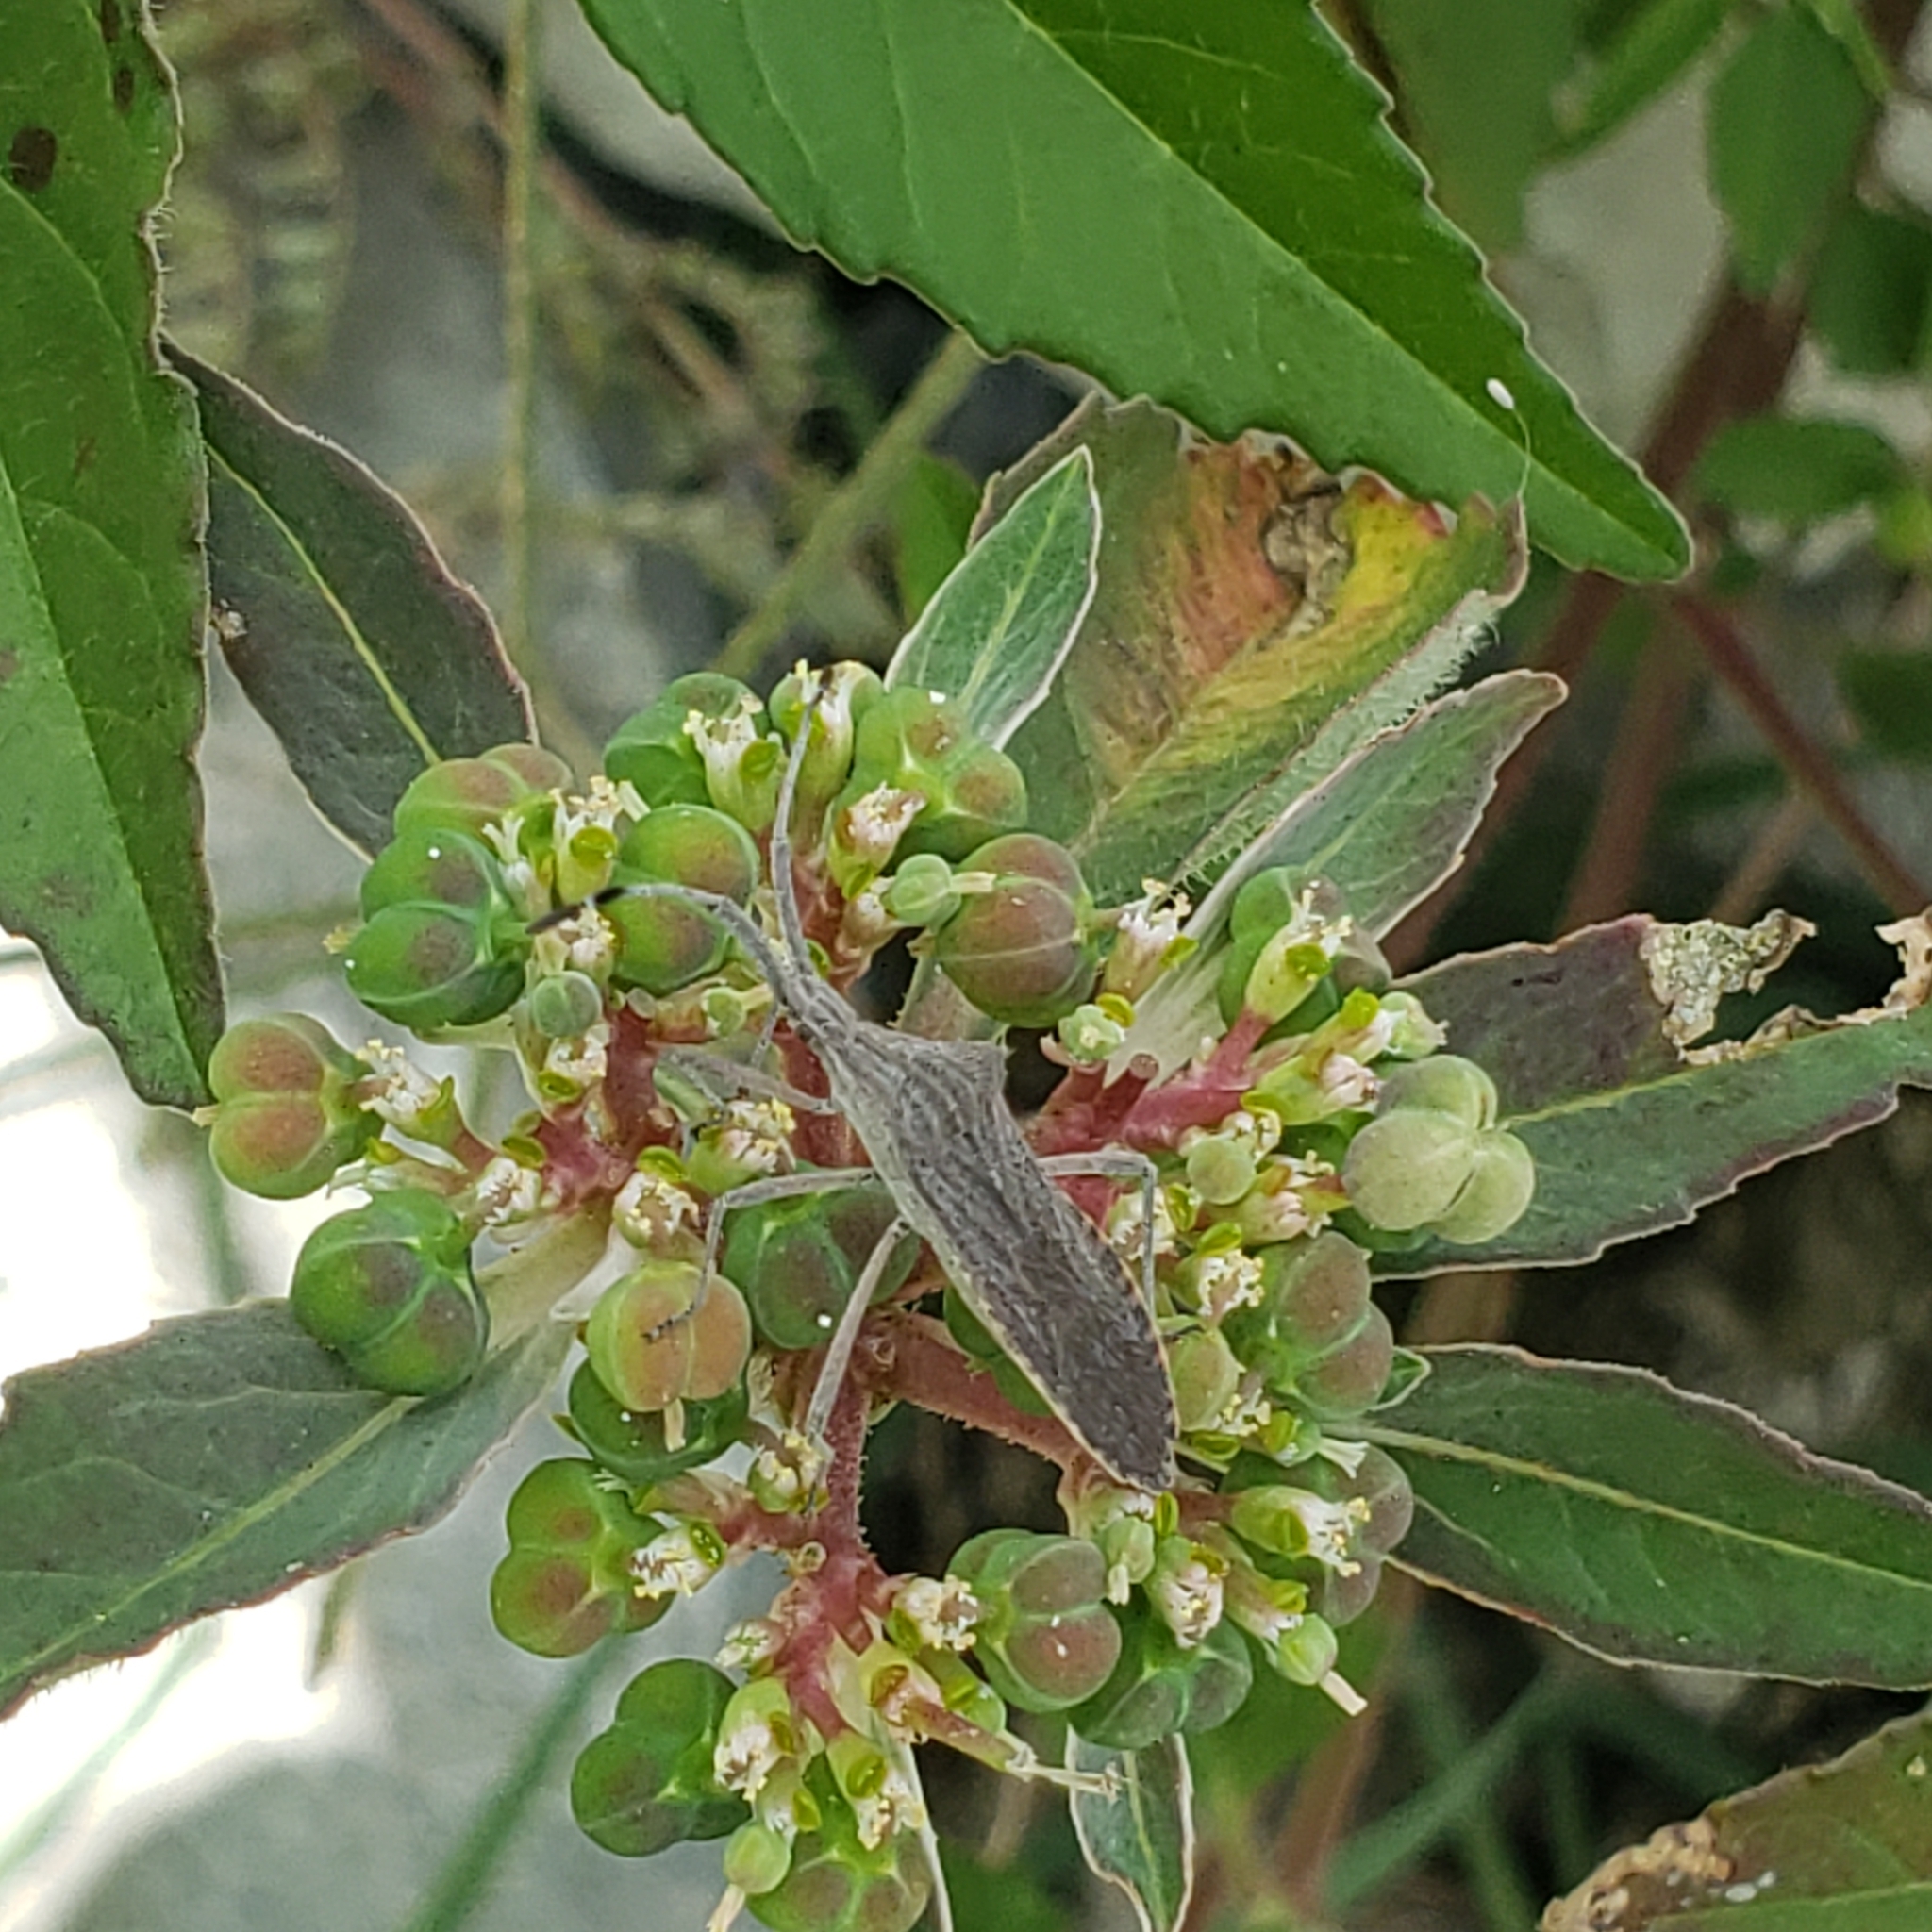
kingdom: Animalia
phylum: Arthropoda
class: Insecta
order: Hemiptera
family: Coreidae
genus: Chariesterus
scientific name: Chariesterus antennator
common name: Flat horned coreid
